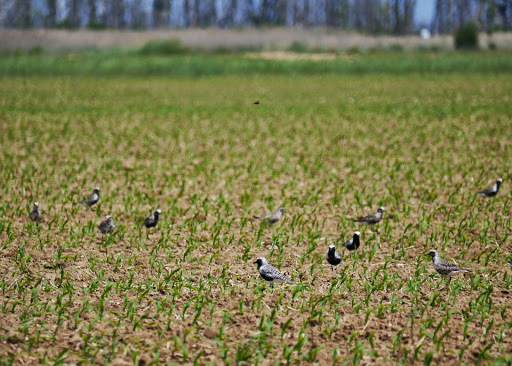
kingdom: Animalia
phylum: Chordata
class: Aves
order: Charadriiformes
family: Charadriidae
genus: Pluvialis
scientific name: Pluvialis squatarola
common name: Grey plover
